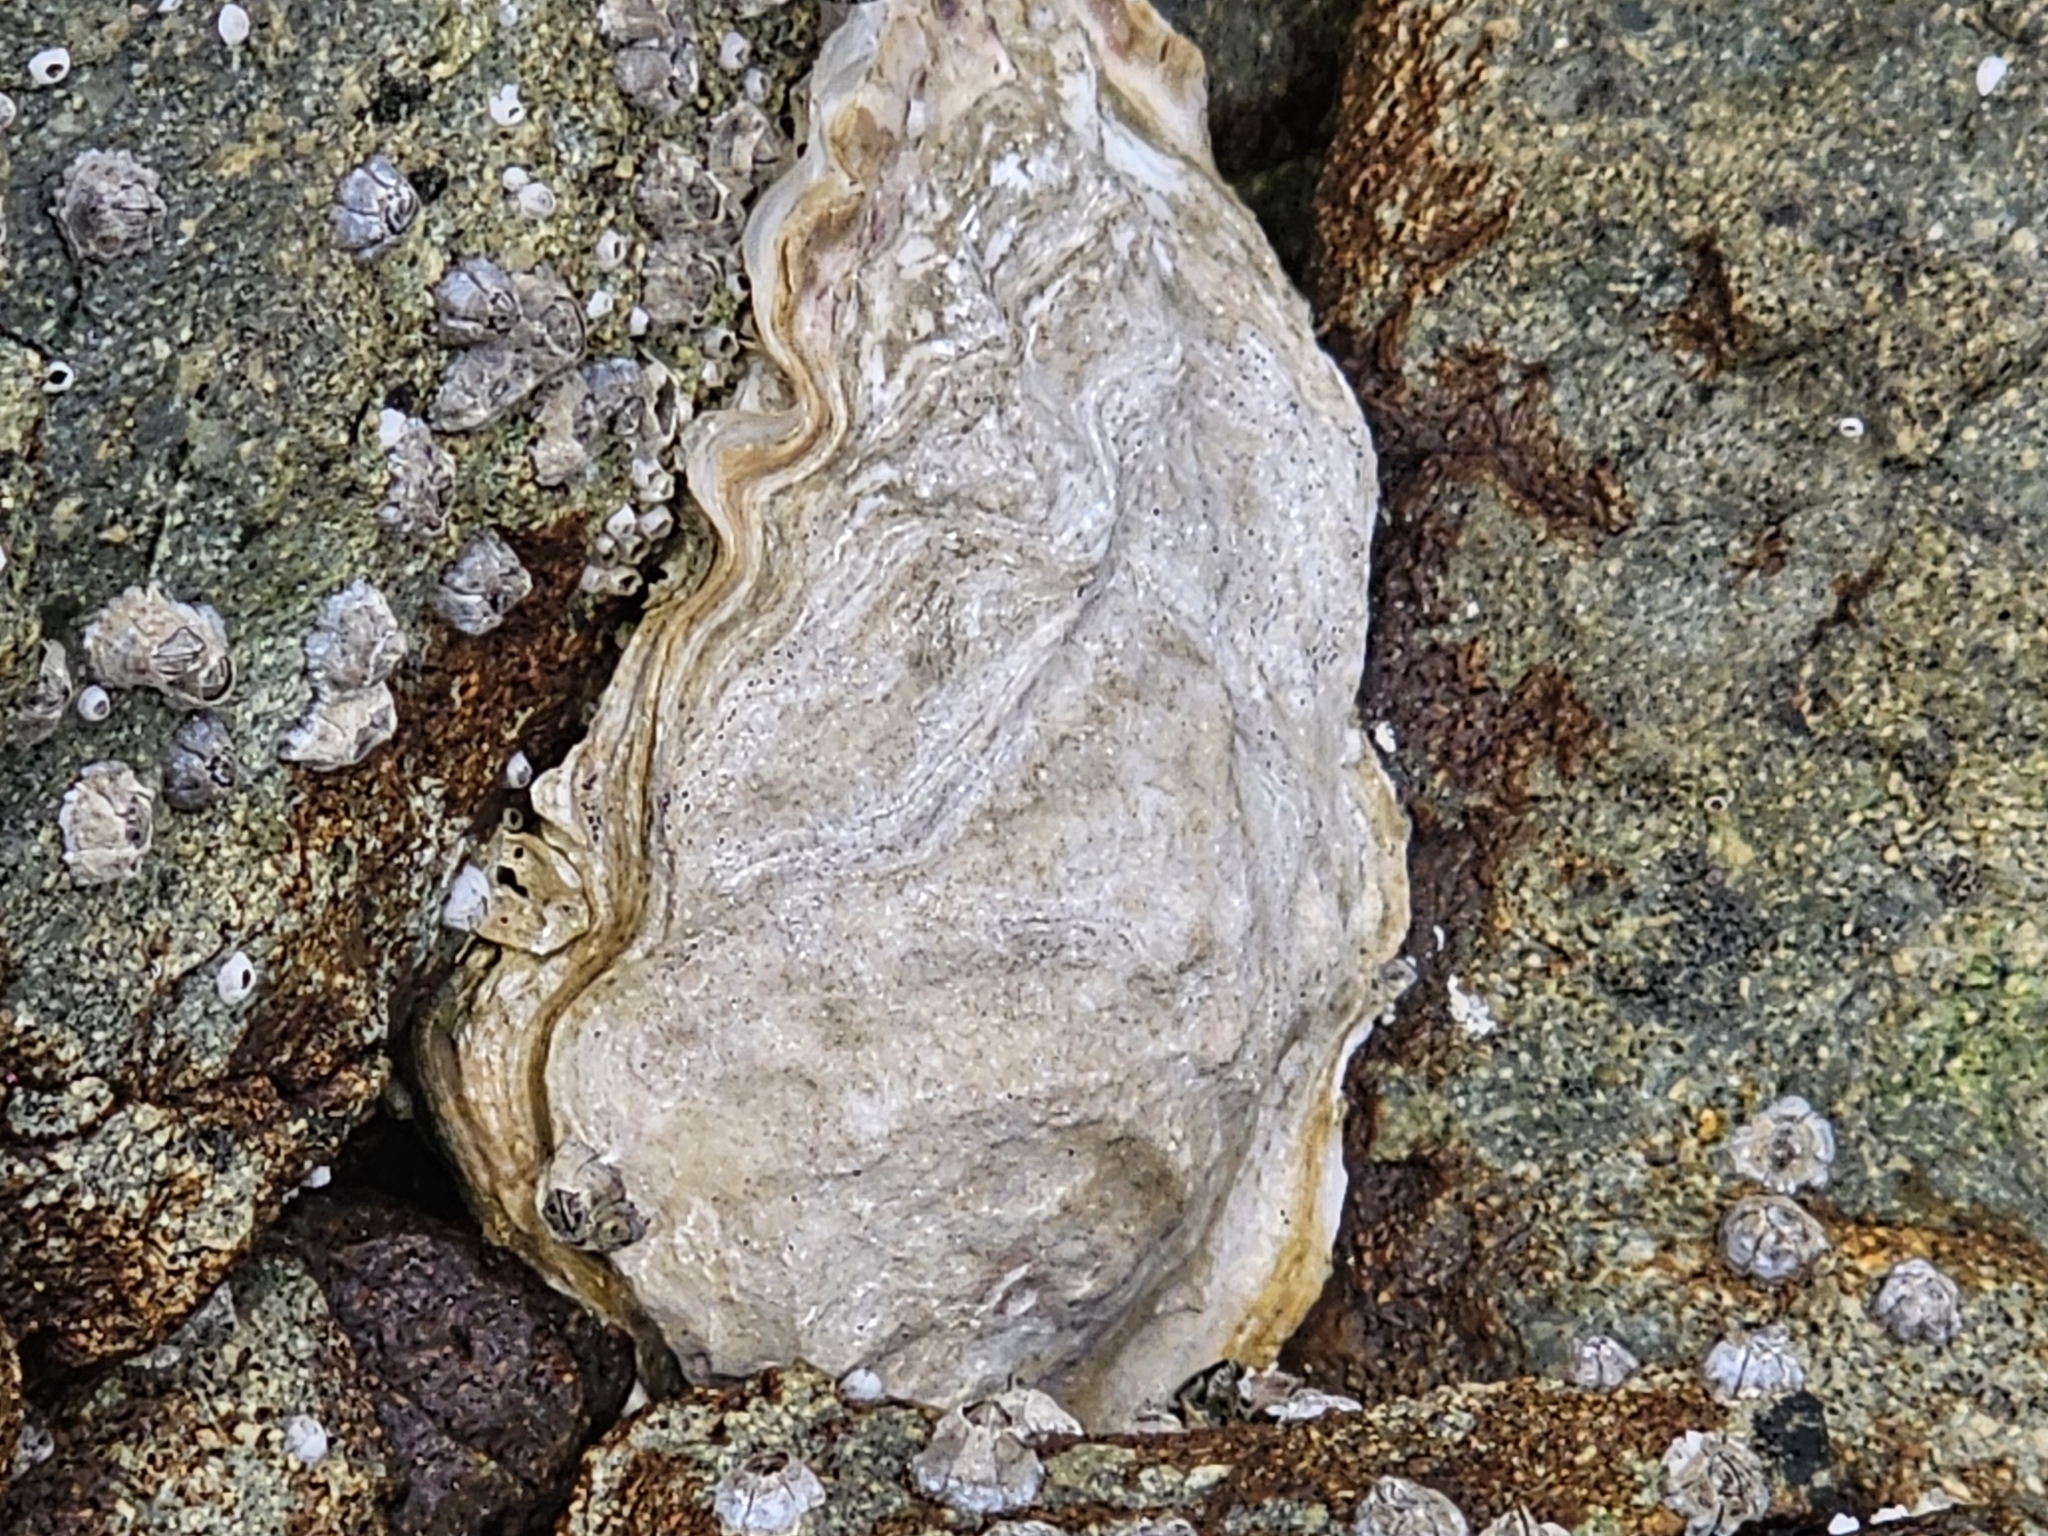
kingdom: Animalia
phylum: Mollusca
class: Bivalvia
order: Ostreida
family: Ostreidae
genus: Magallana
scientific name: Magallana gigas
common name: Pacific oyster
